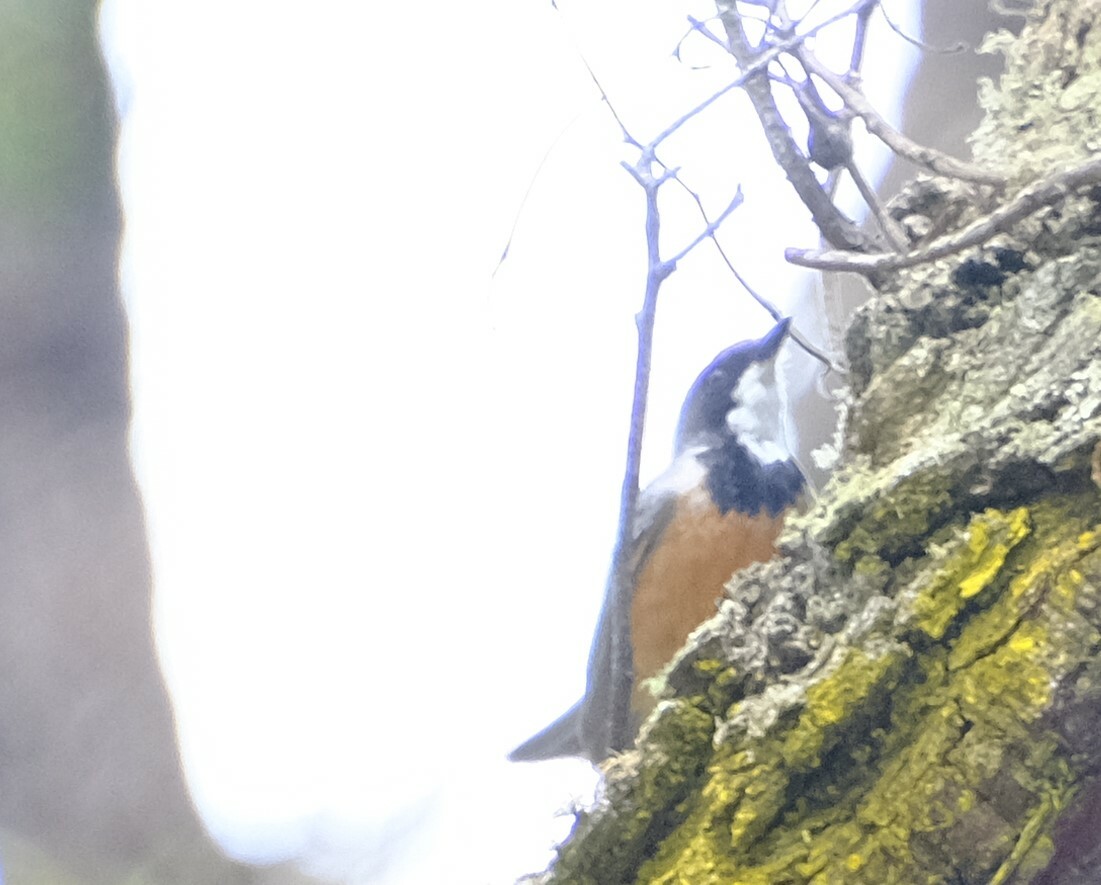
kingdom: Animalia
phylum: Chordata
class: Aves
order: Passeriformes
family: Pachycephalidae
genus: Pachycephala
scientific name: Pachycephala rufiventris
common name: Rufous whistler
